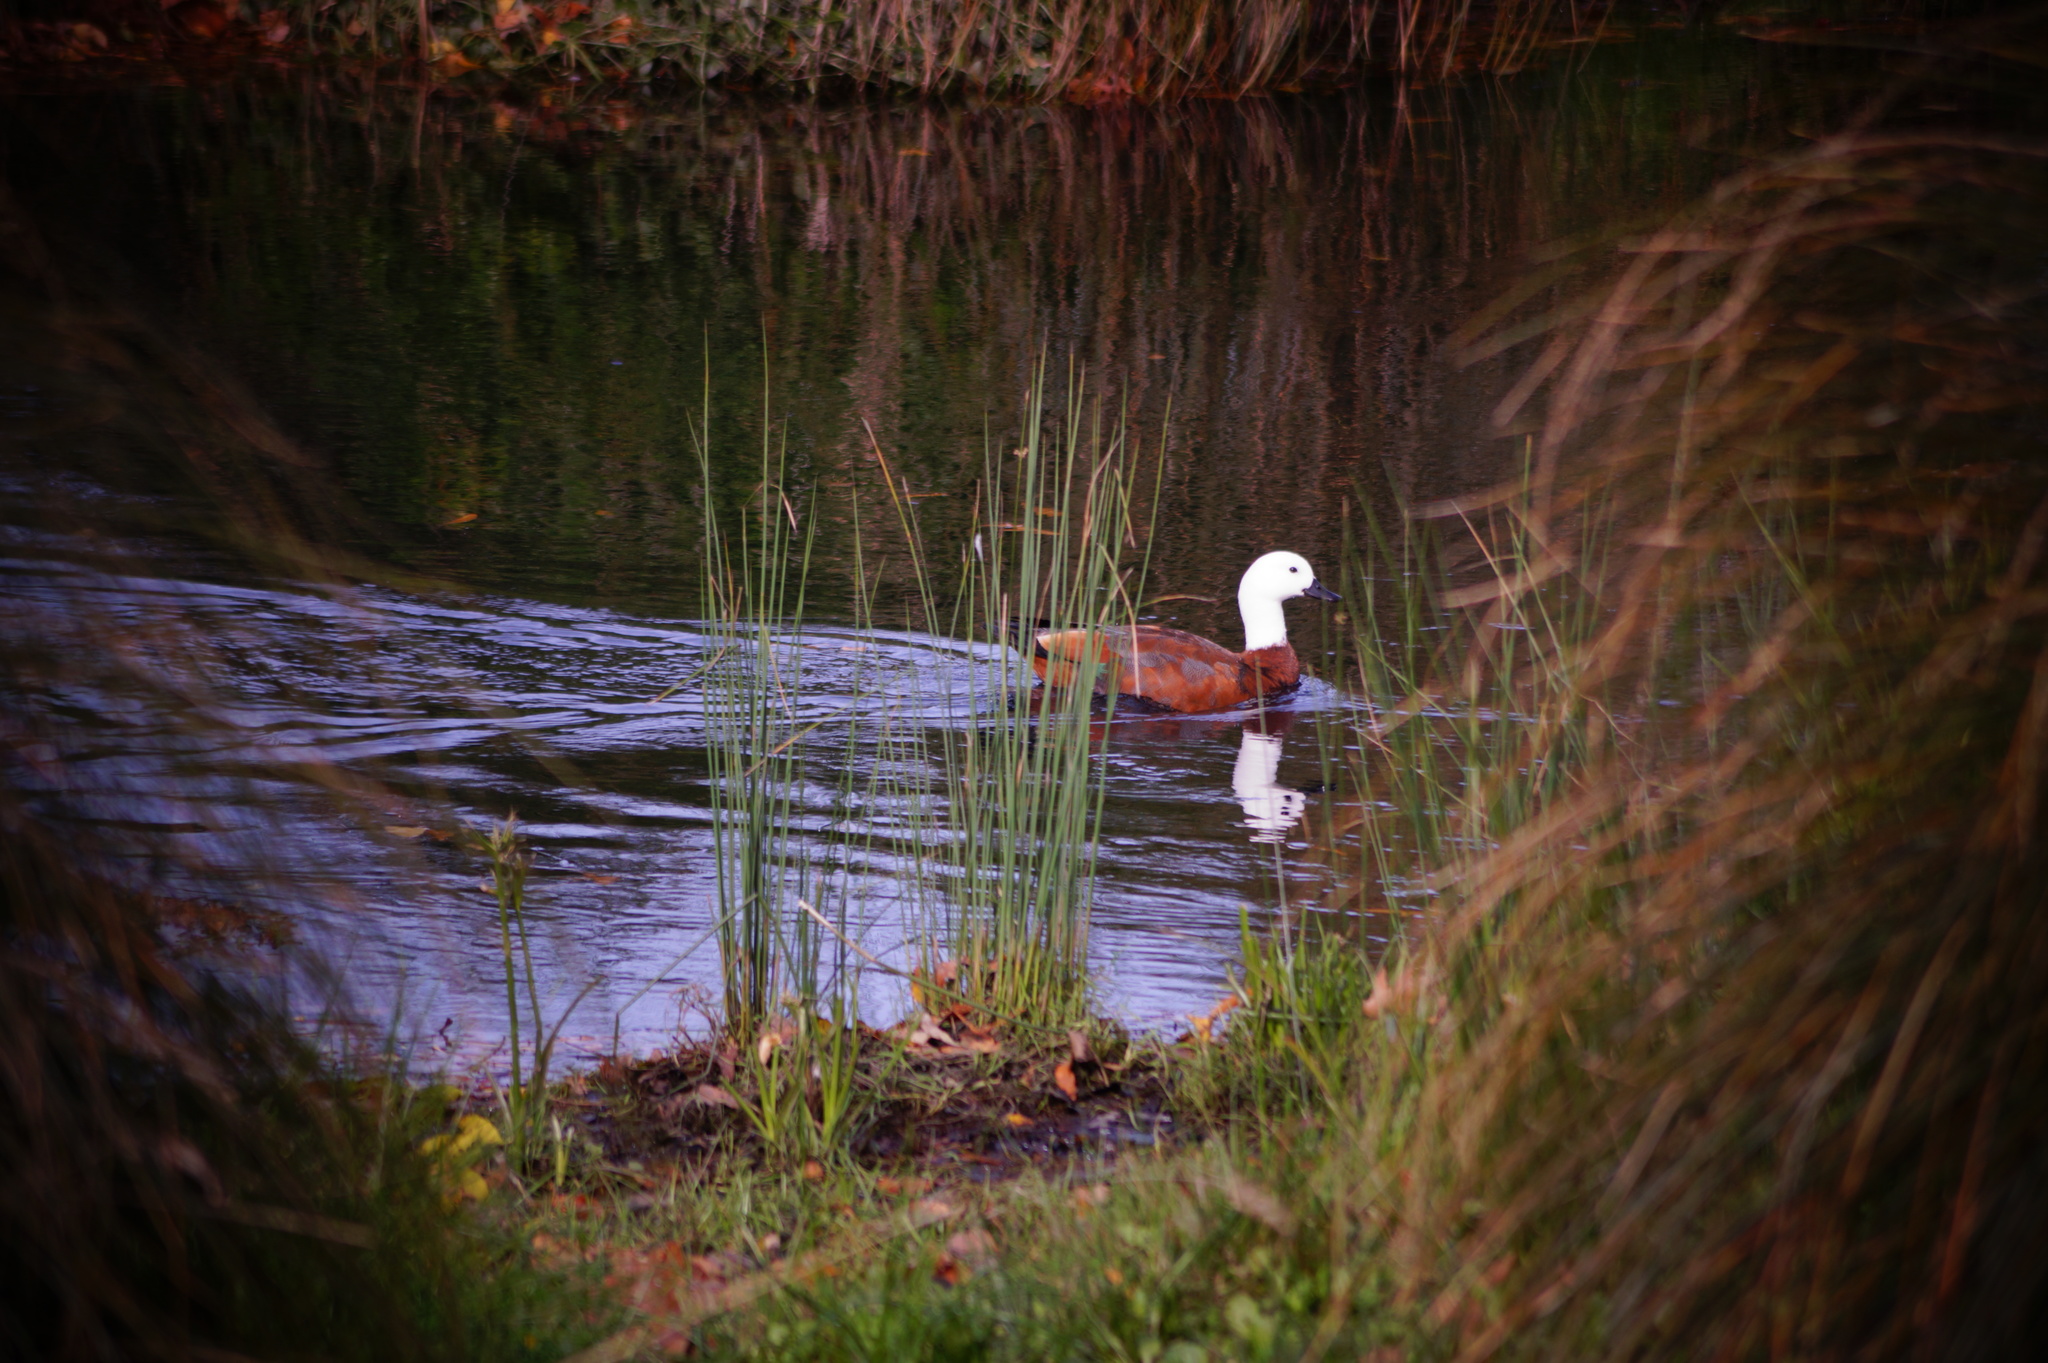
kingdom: Animalia
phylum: Chordata
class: Aves
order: Anseriformes
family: Anatidae
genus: Tadorna
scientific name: Tadorna variegata
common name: Paradise shelduck
